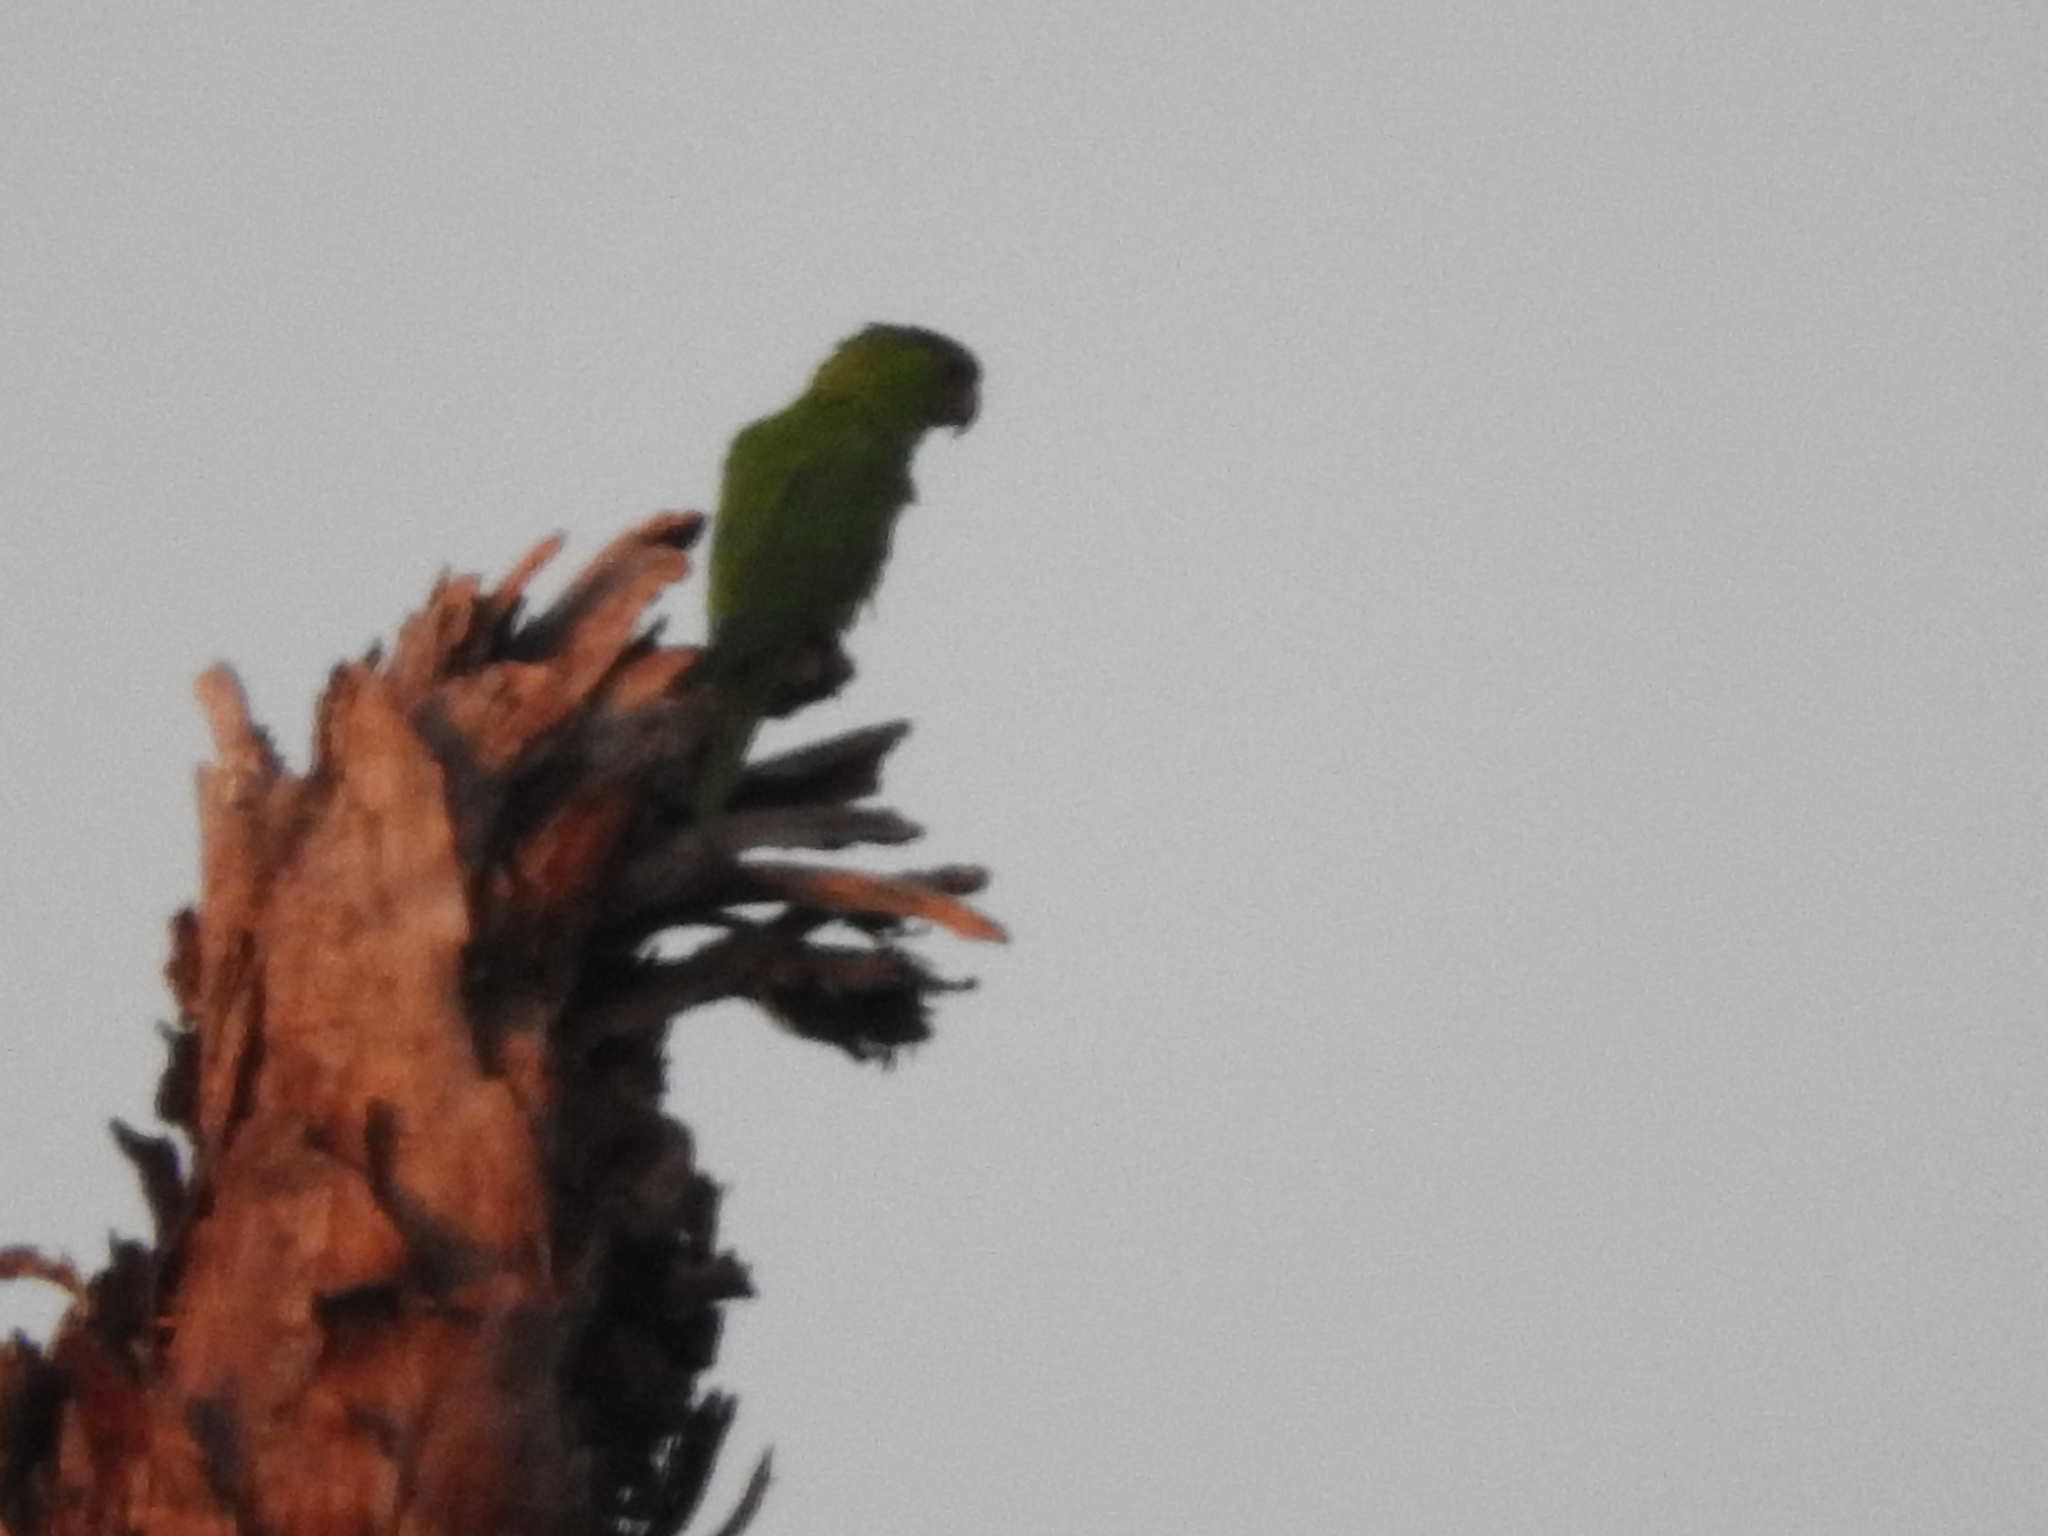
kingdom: Animalia
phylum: Chordata
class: Aves
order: Psittaciformes
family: Psittacidae
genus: Aratinga
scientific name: Aratinga holochlora
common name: Green parakeet
